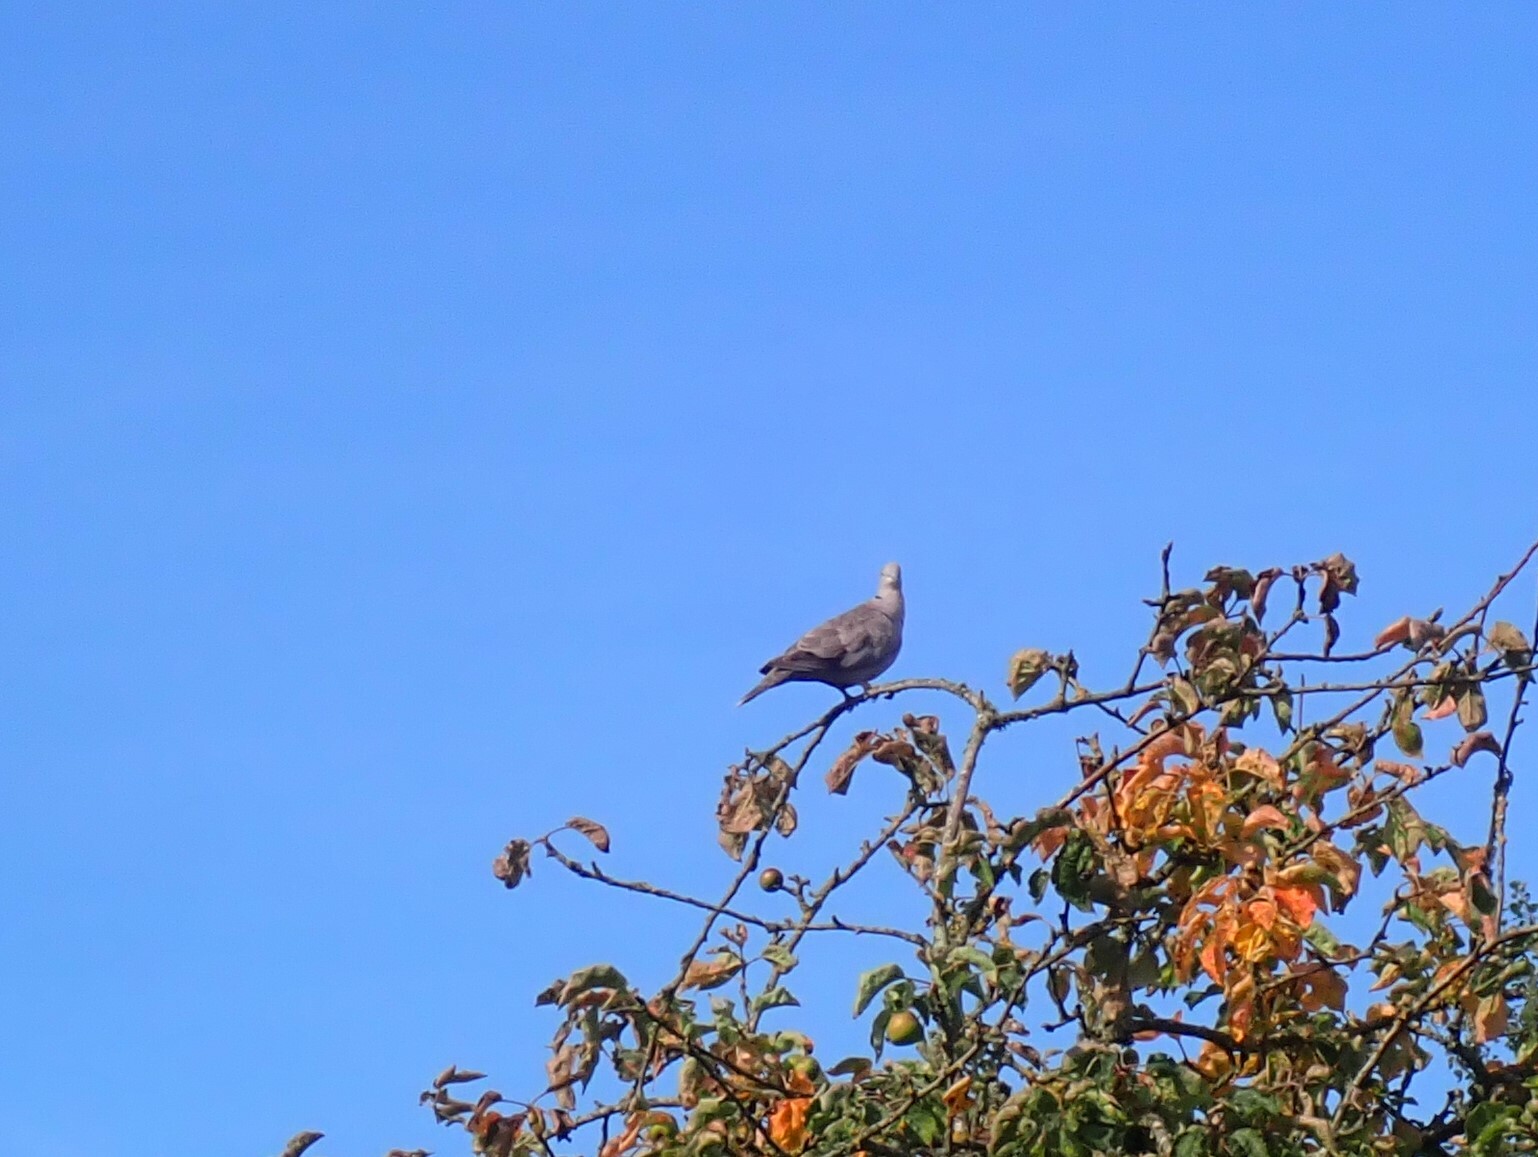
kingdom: Animalia
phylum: Chordata
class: Aves
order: Columbiformes
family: Columbidae
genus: Streptopelia
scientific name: Streptopelia decaocto
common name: Eurasian collared dove
